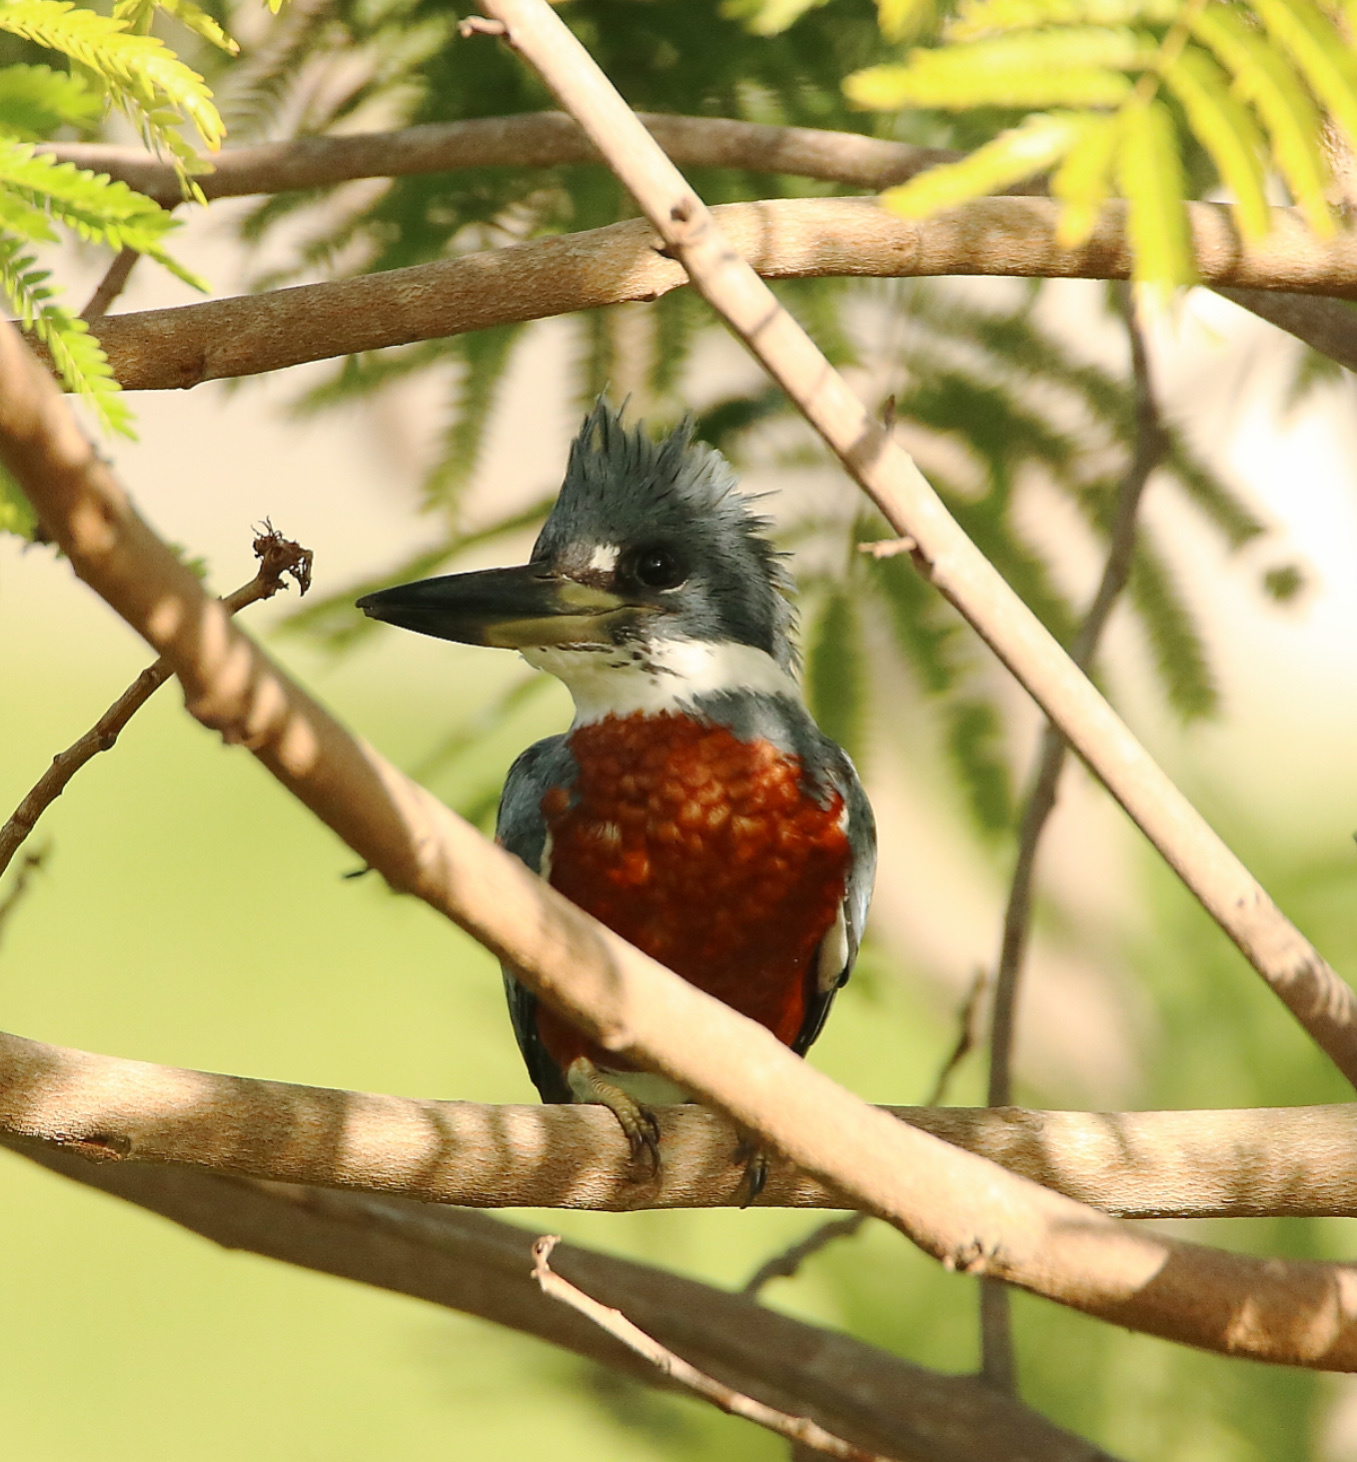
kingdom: Animalia
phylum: Chordata
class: Aves
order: Coraciiformes
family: Alcedinidae
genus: Megaceryle
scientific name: Megaceryle torquata
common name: Ringed kingfisher
